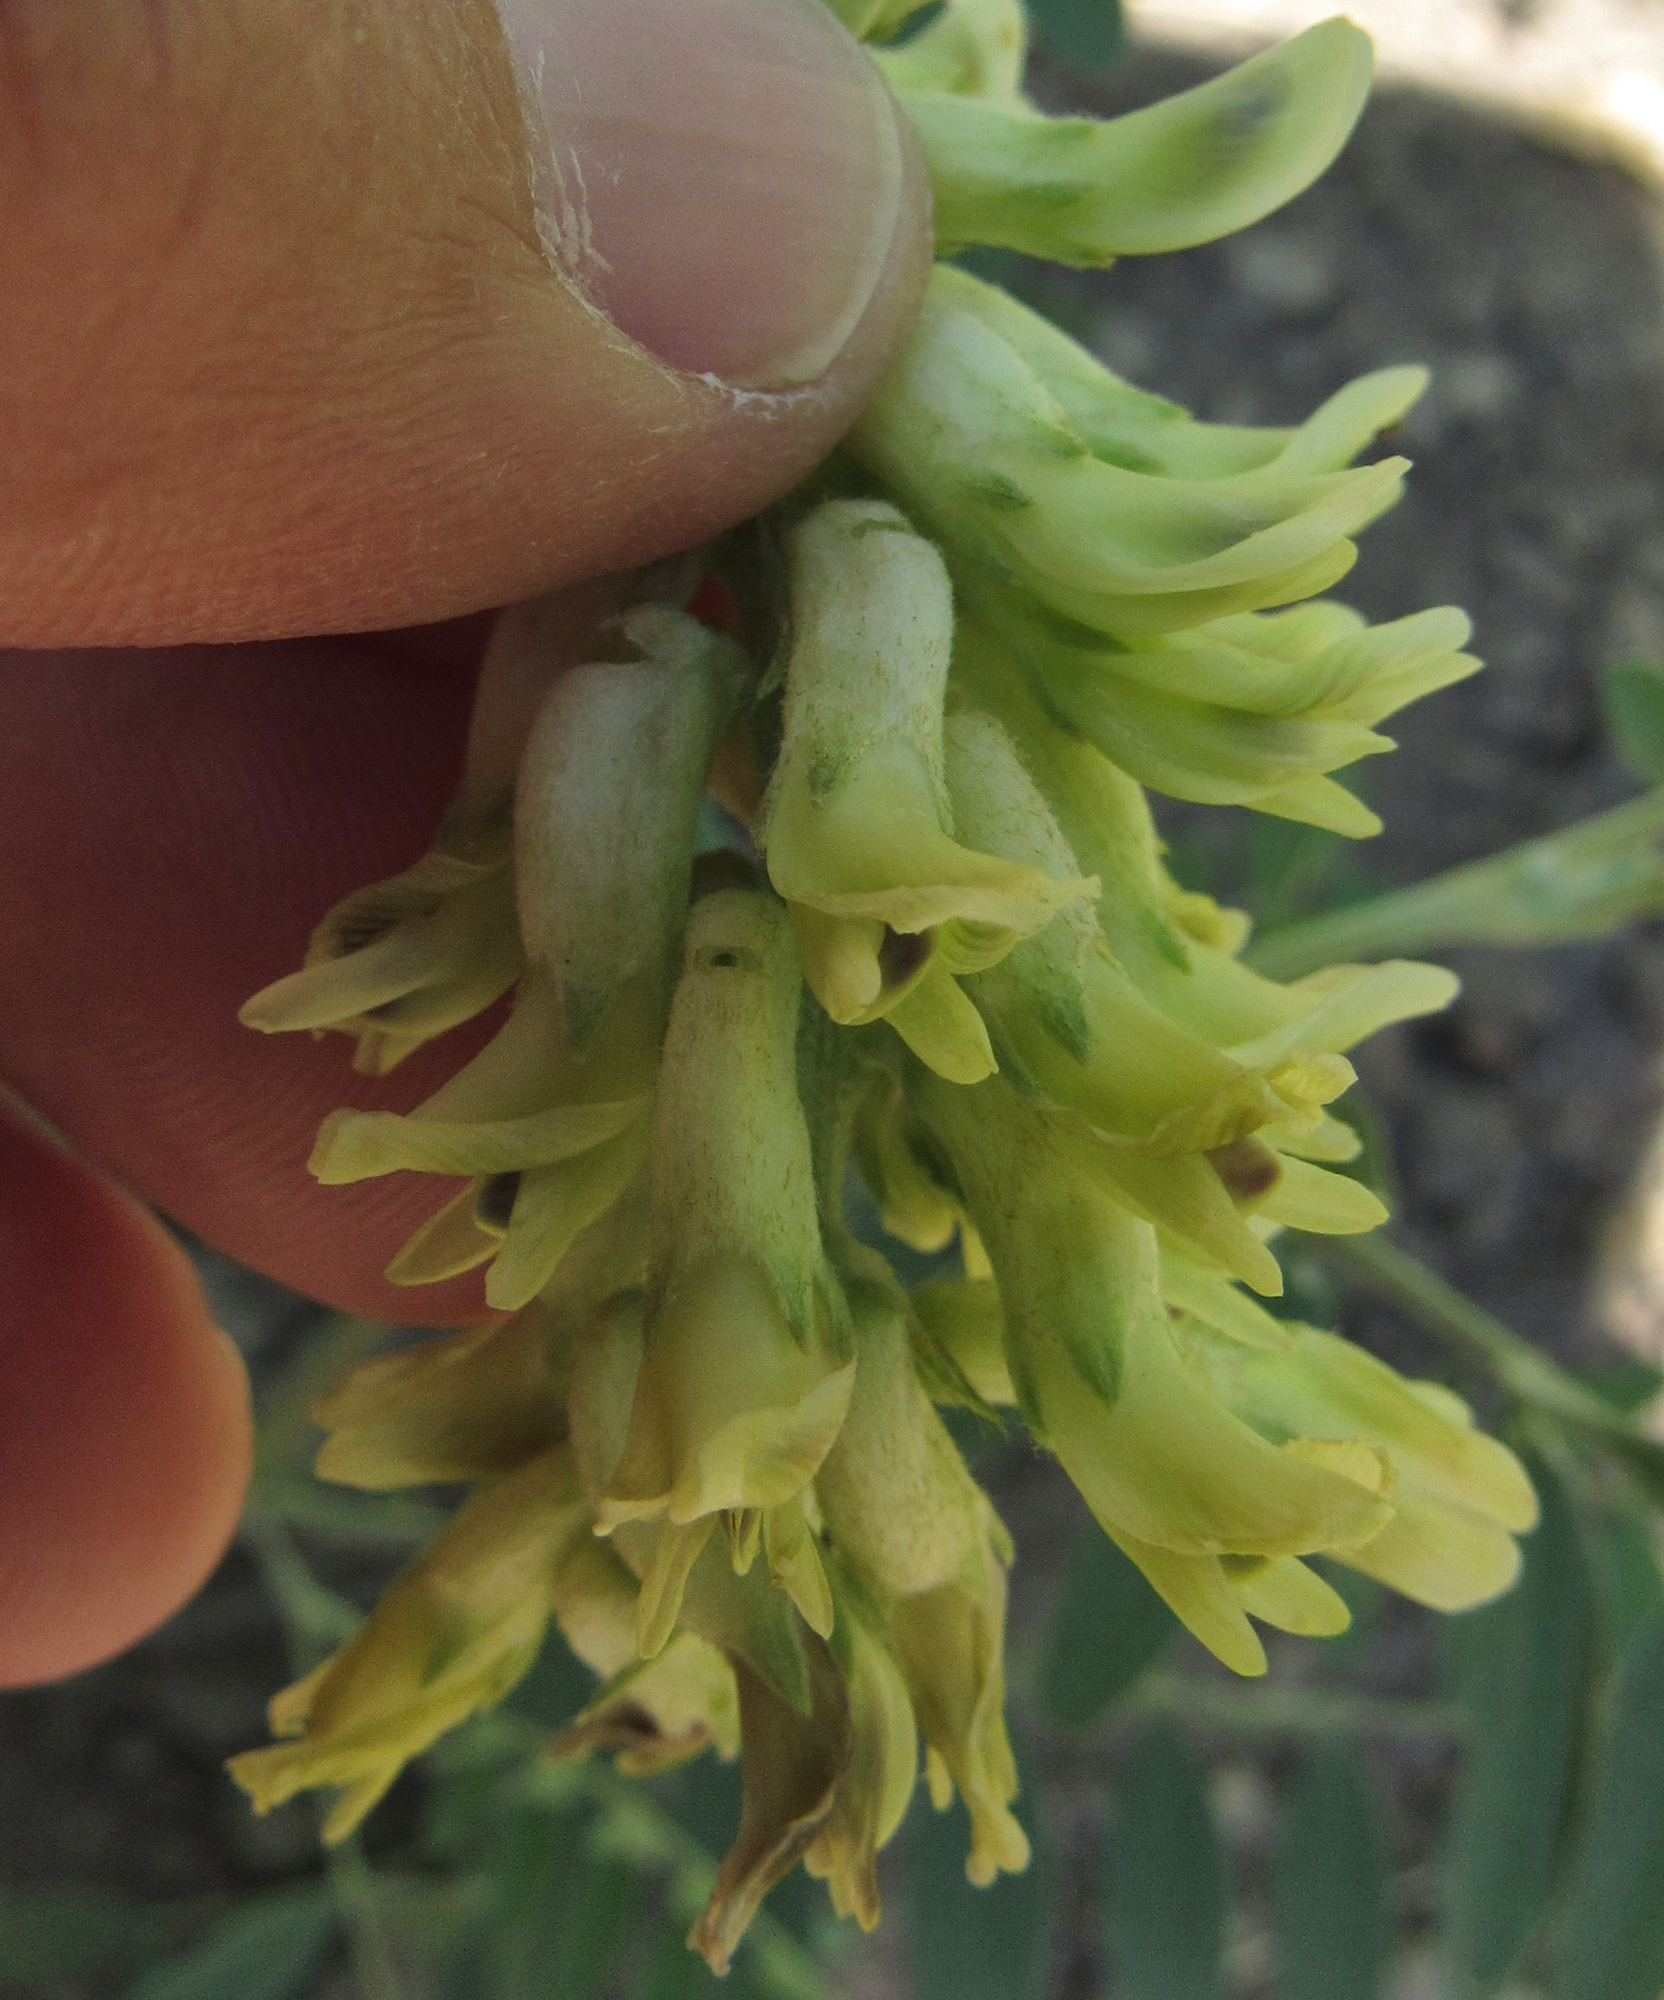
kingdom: Plantae
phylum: Tracheophyta
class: Magnoliopsida
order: Fabales
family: Fabaceae
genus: Astragalus
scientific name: Astragalus canadensis
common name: Canada milk-vetch
